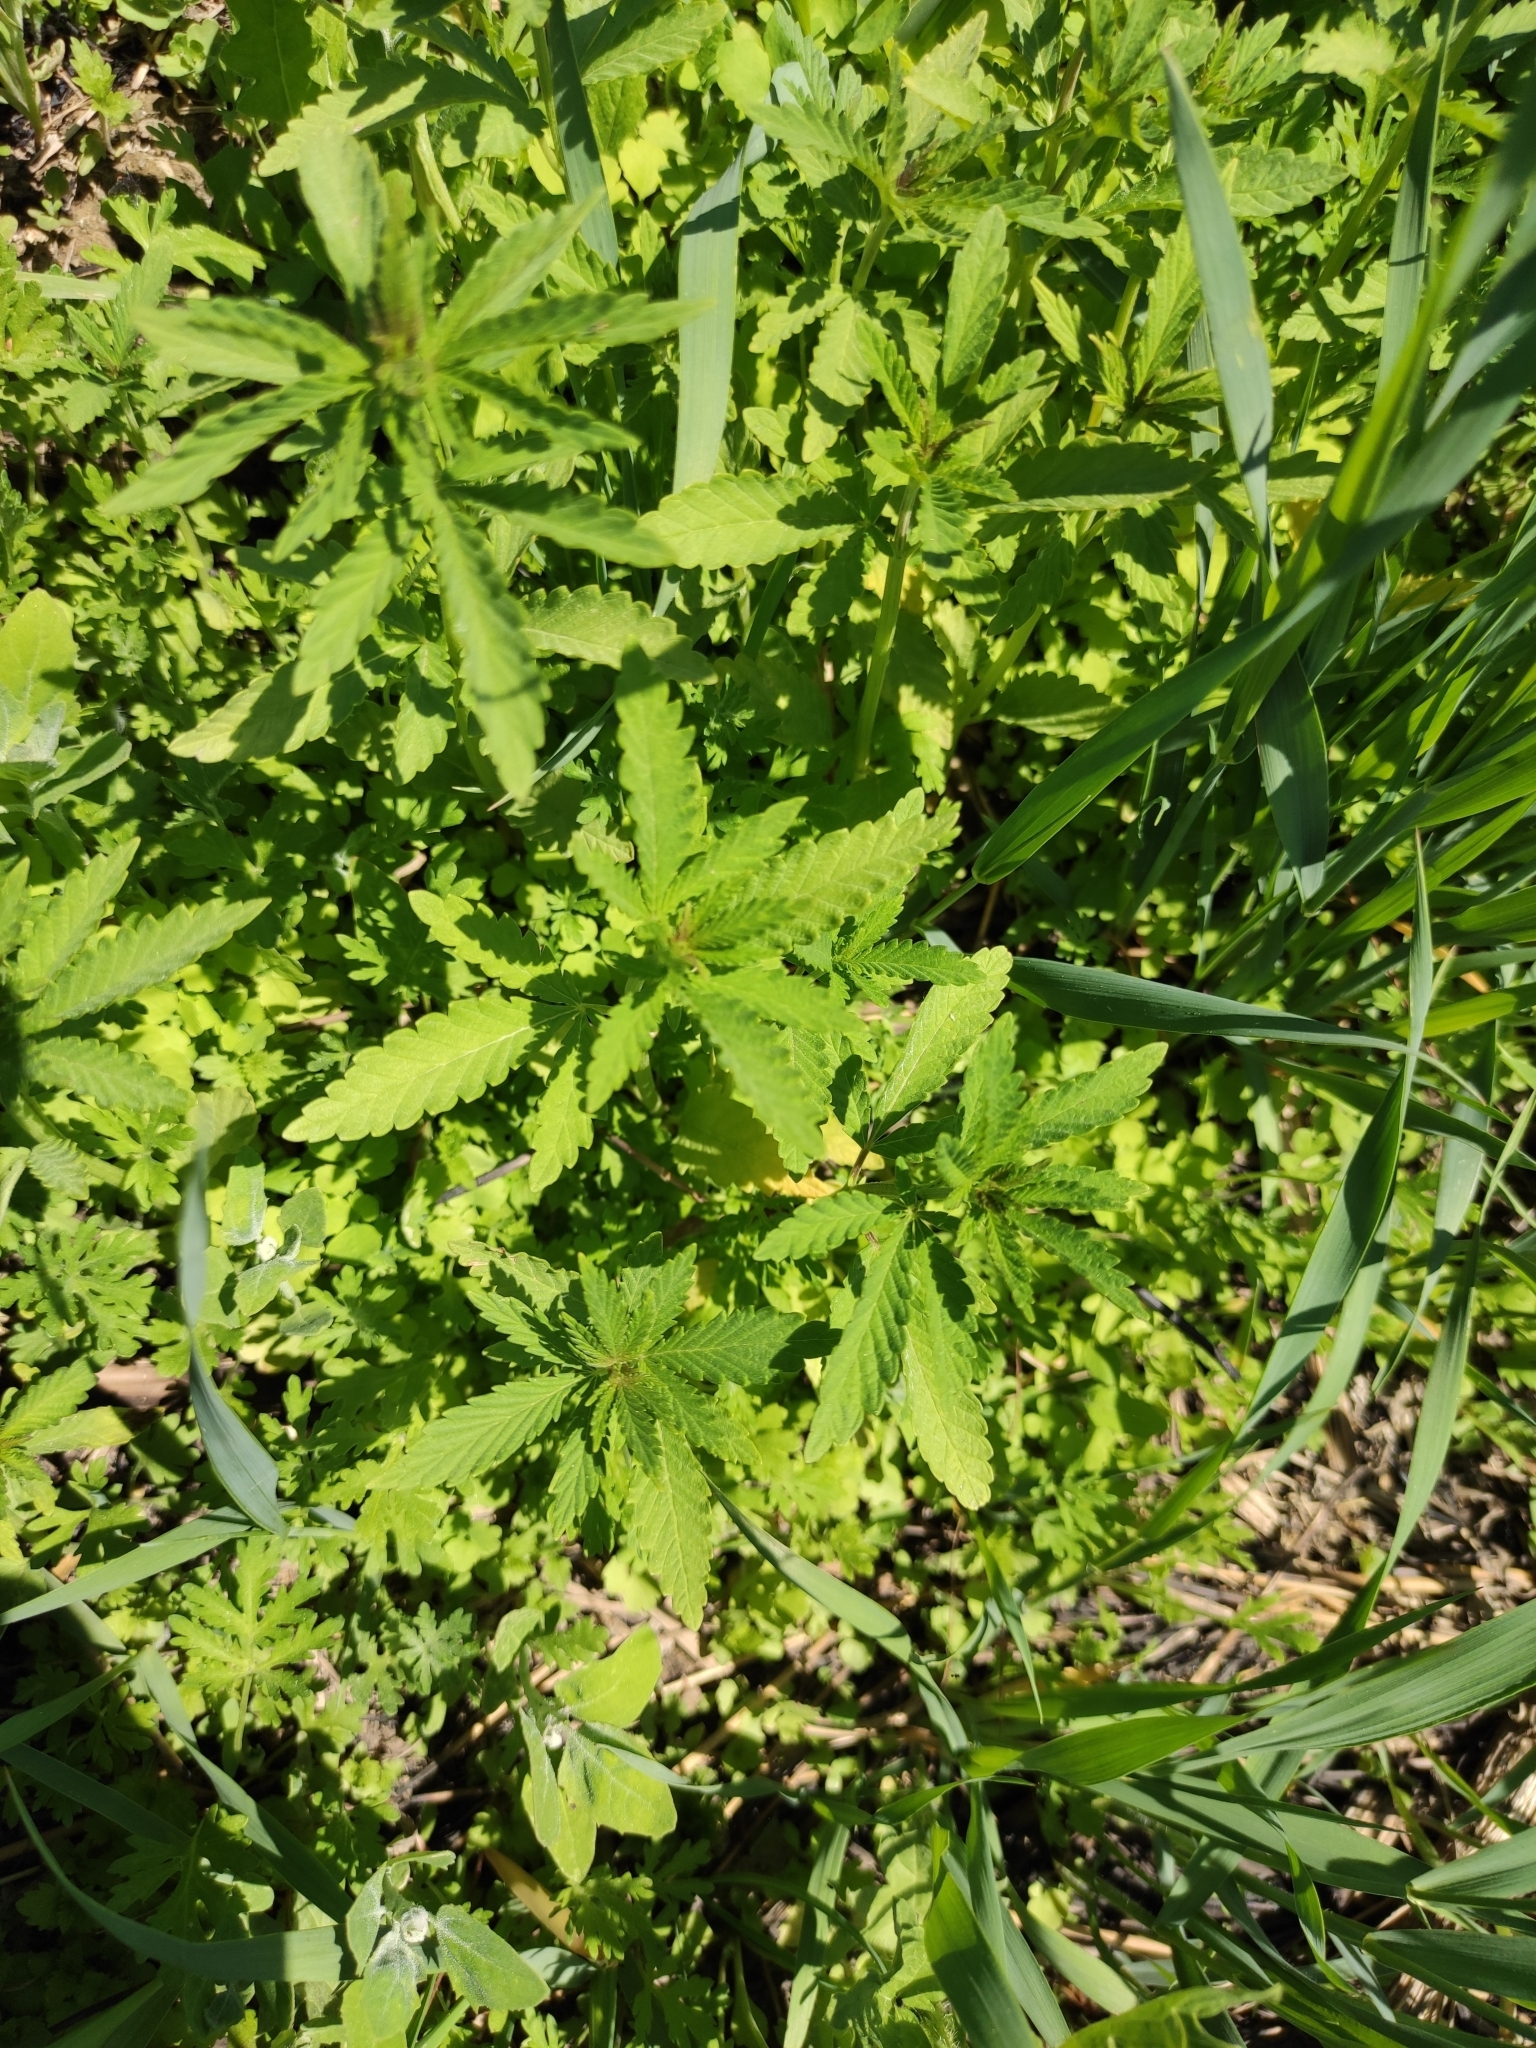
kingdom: Plantae
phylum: Tracheophyta
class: Magnoliopsida
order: Rosales
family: Cannabaceae
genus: Cannabis
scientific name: Cannabis sativa
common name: Hemp
